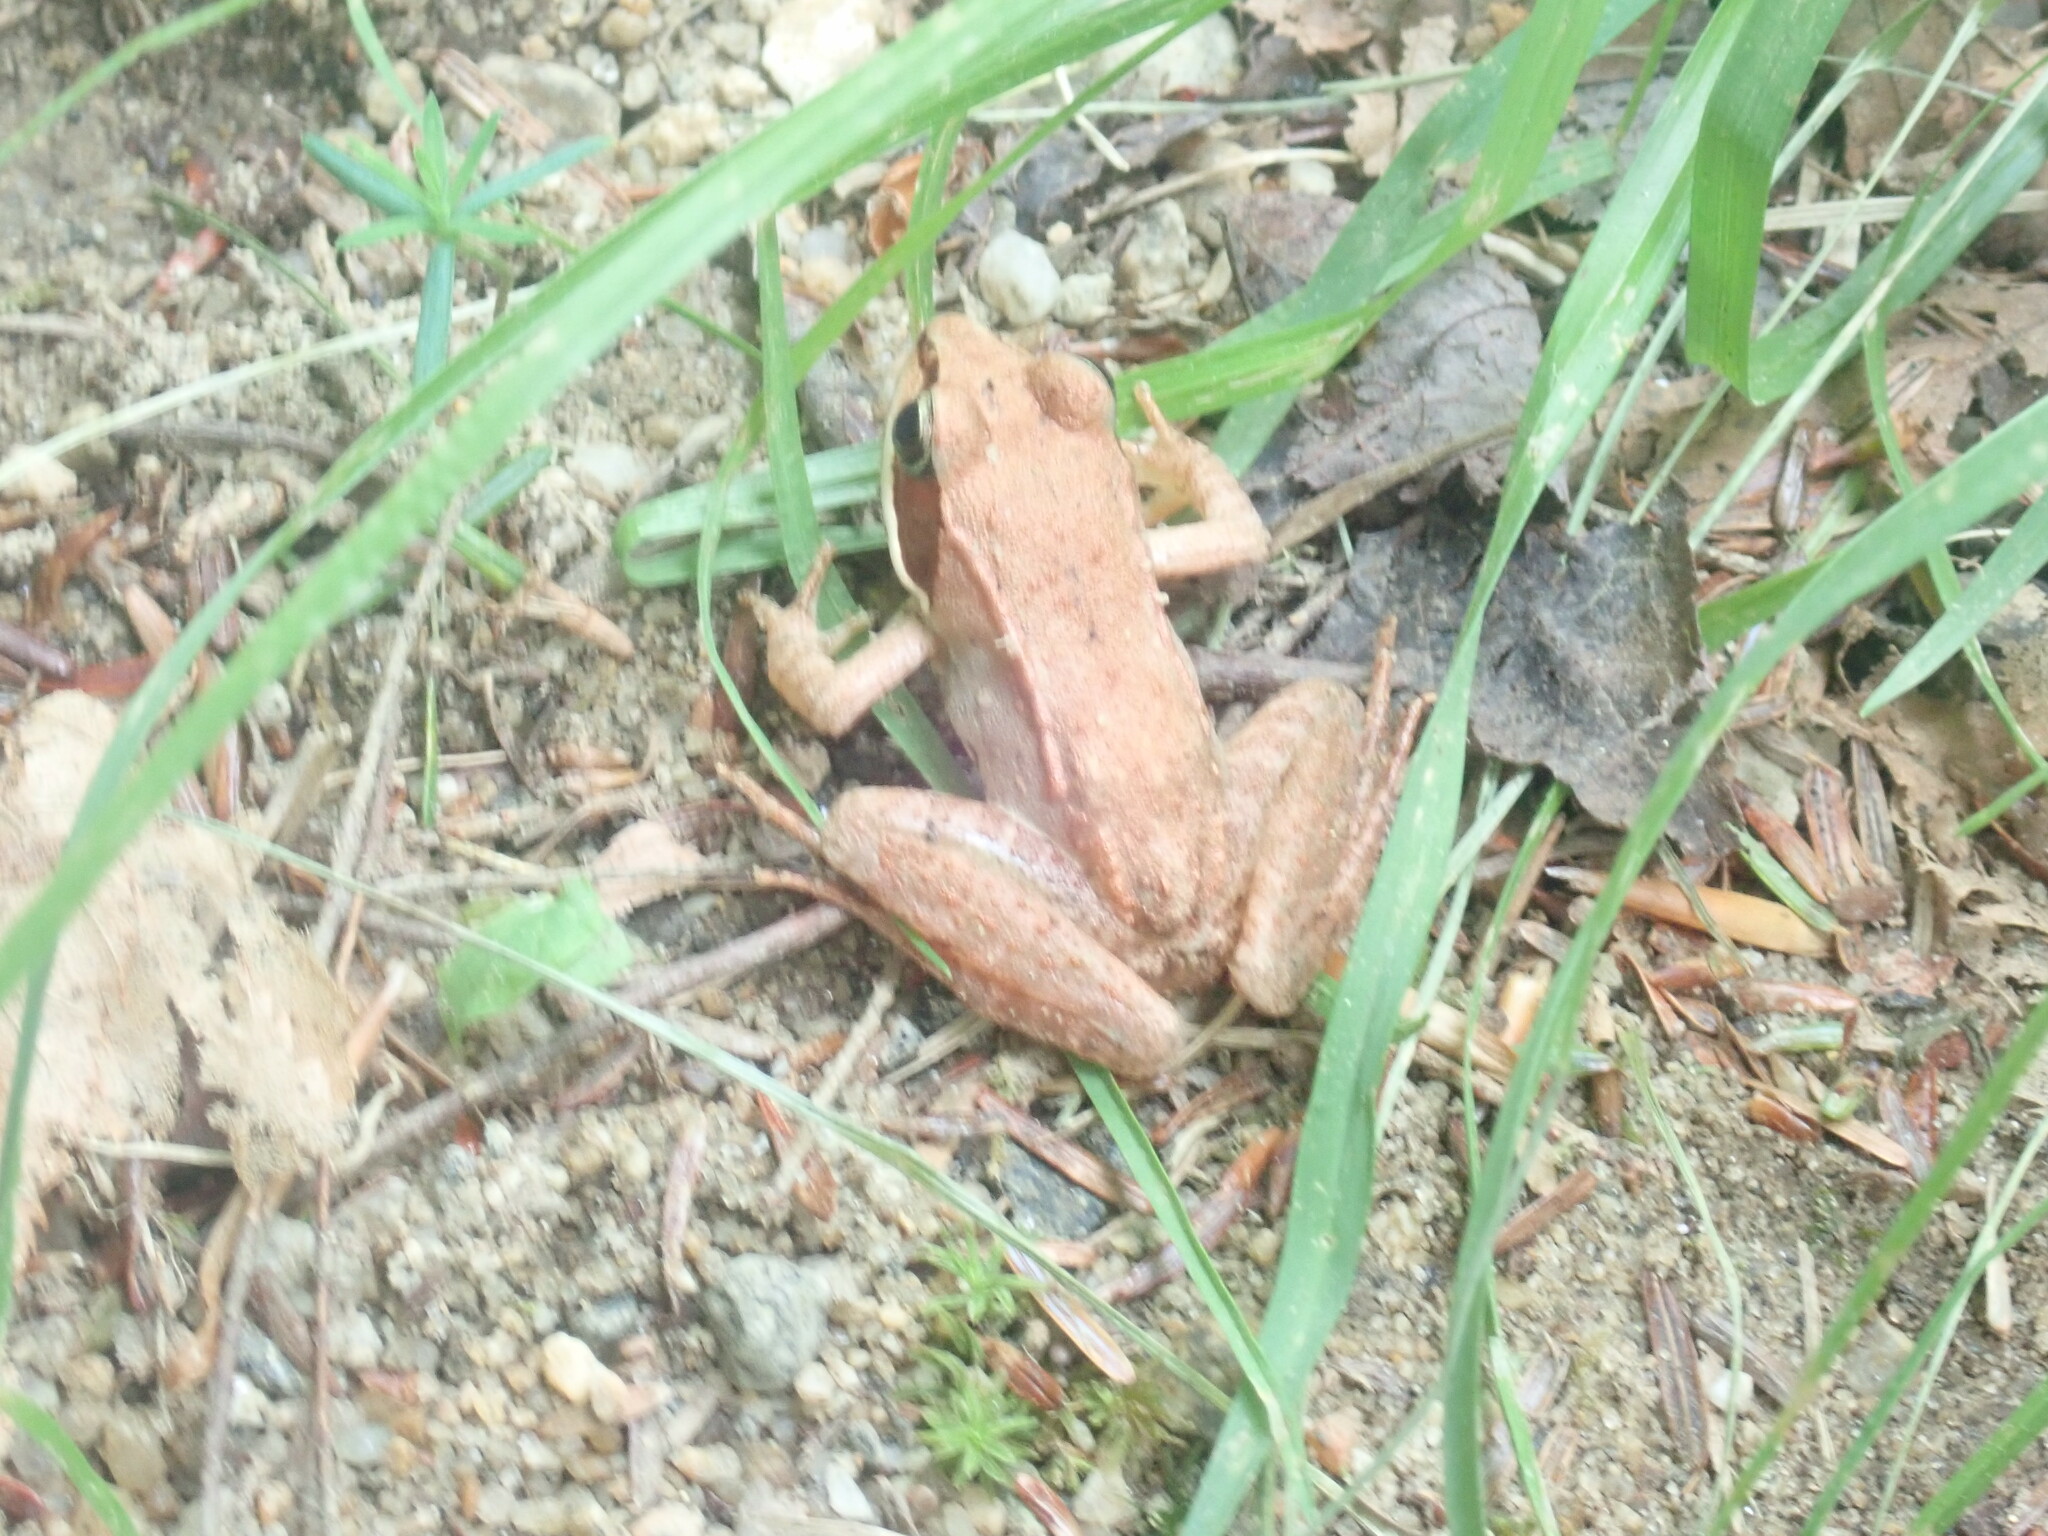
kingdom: Animalia
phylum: Chordata
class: Amphibia
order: Anura
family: Ranidae
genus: Lithobates
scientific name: Lithobates sylvaticus
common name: Wood frog
